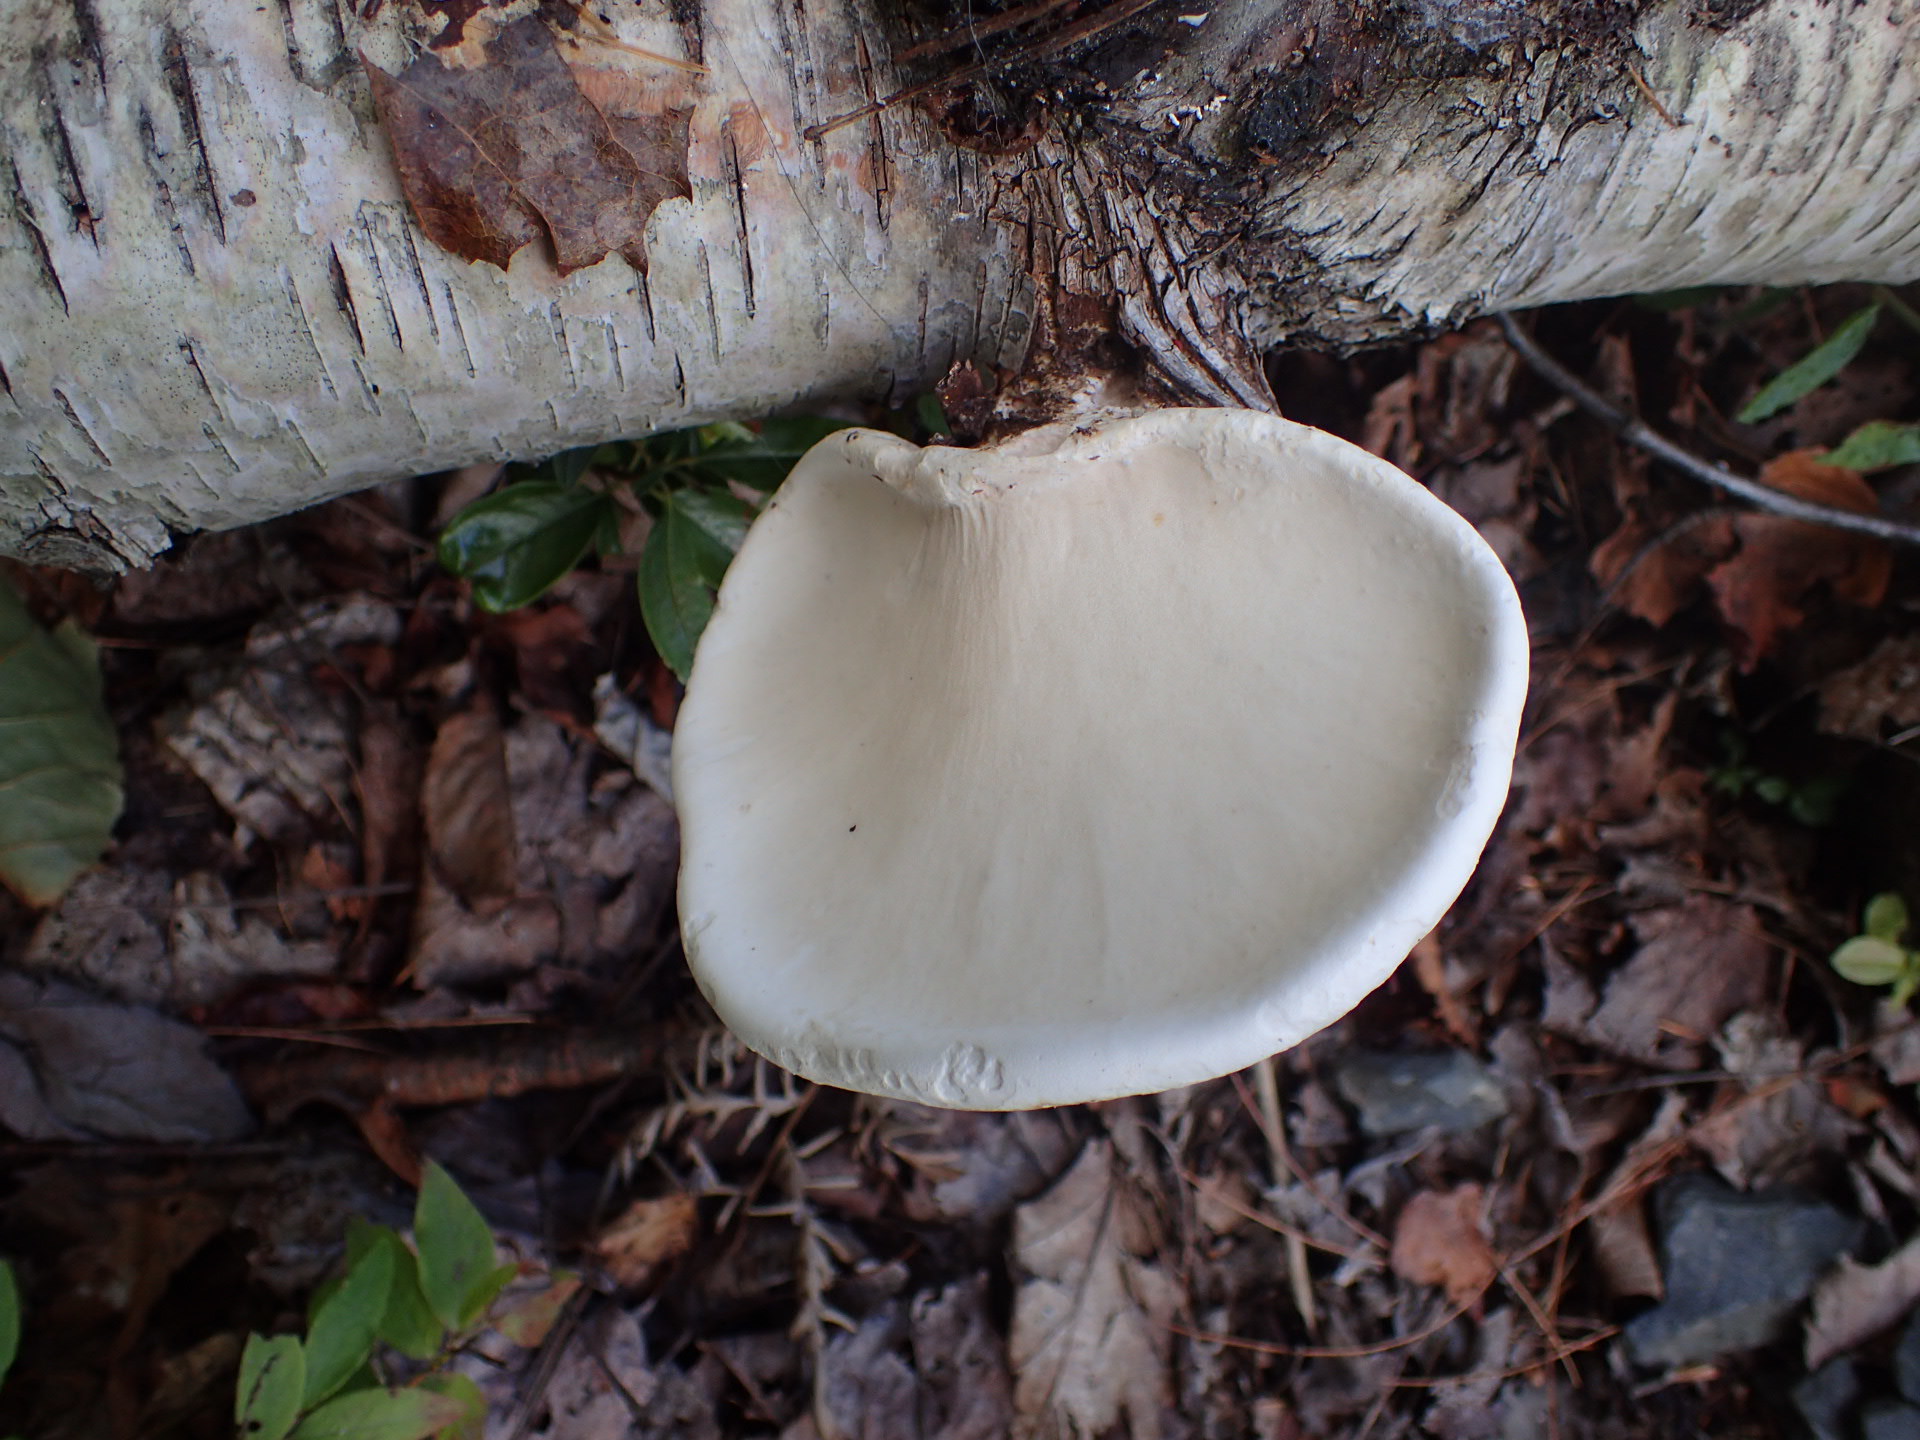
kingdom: Fungi
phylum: Basidiomycota
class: Agaricomycetes
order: Polyporales
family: Fomitopsidaceae
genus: Fomitopsis
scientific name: Fomitopsis betulina
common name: Birch polypore
